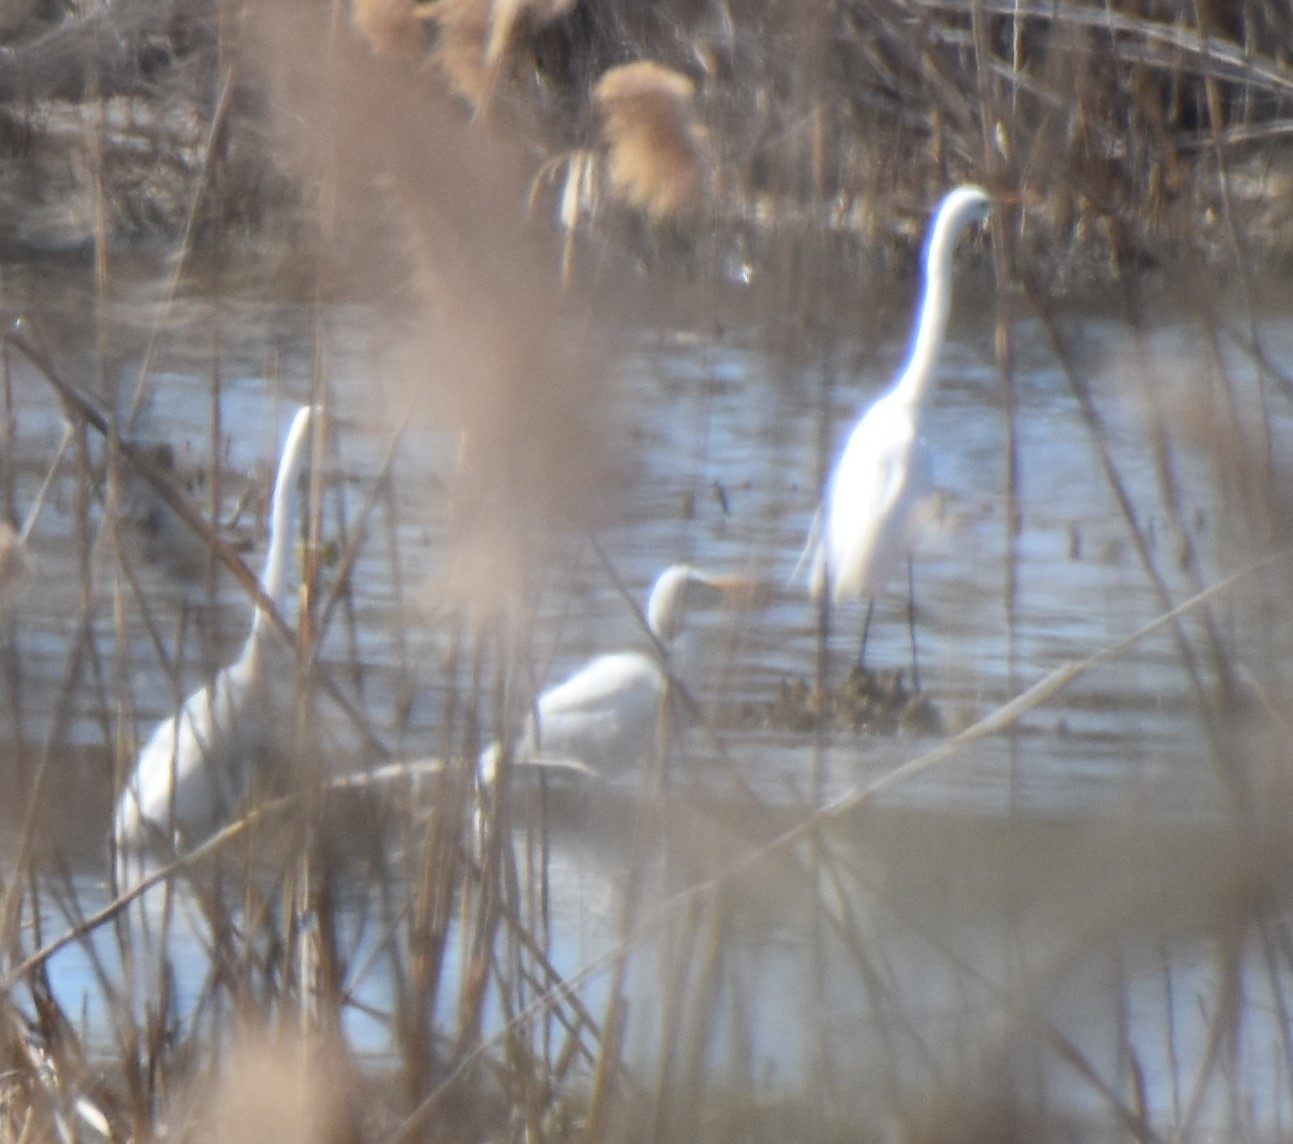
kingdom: Animalia
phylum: Chordata
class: Aves
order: Pelecaniformes
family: Ardeidae
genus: Ardea
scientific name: Ardea alba
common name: Great egret
